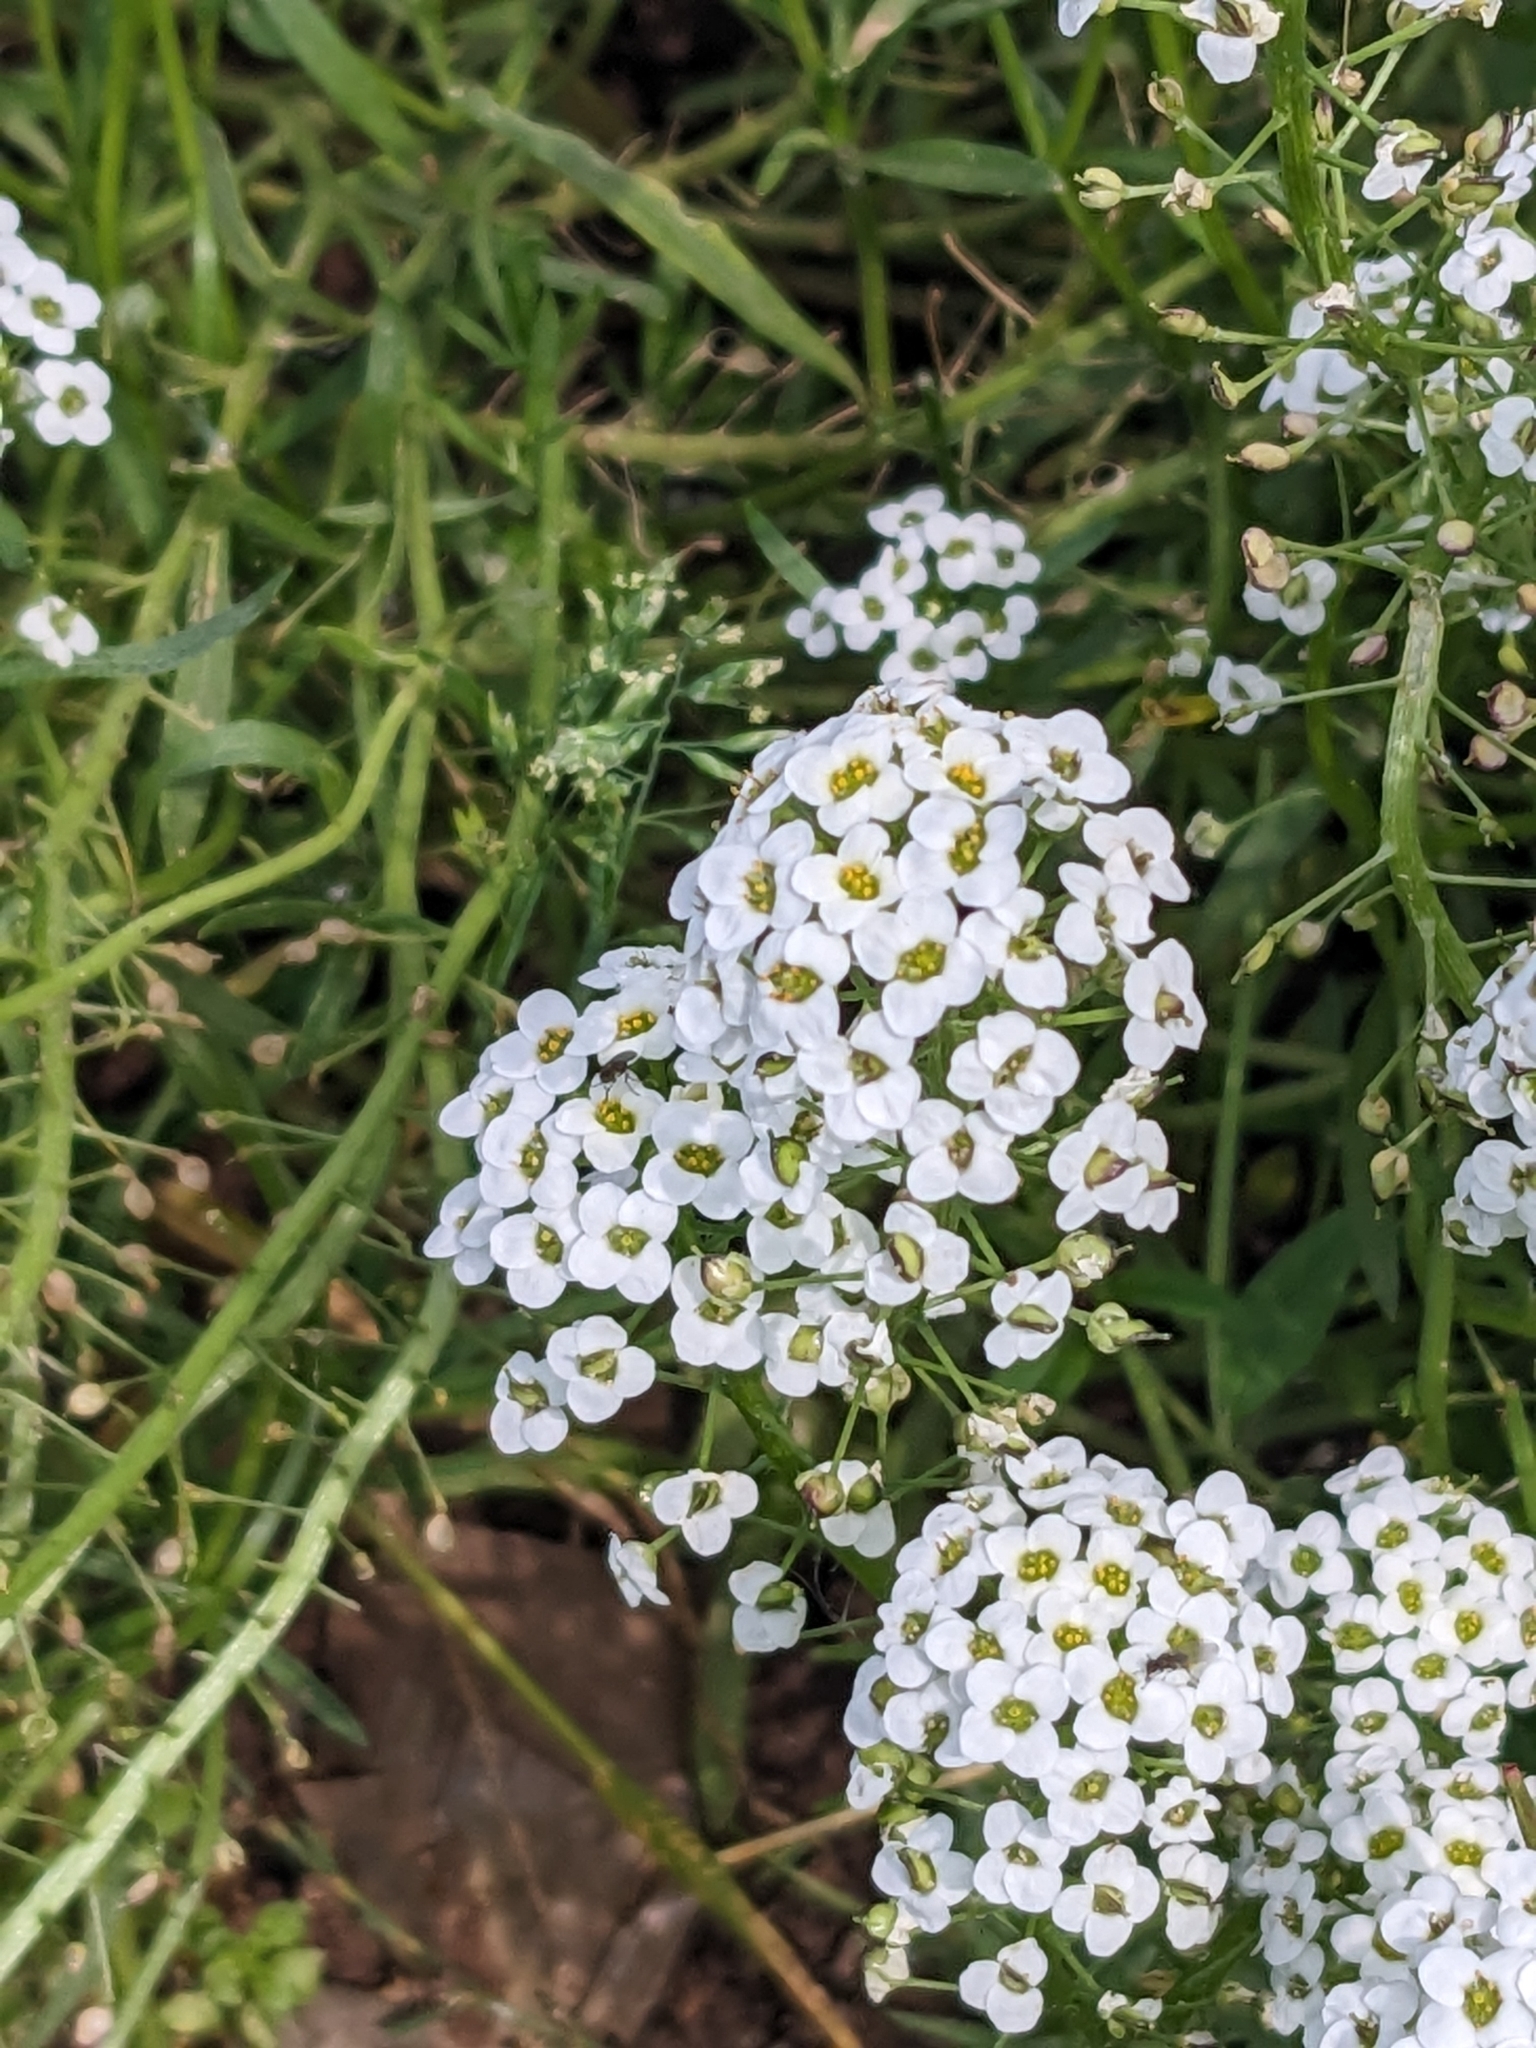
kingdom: Plantae
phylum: Tracheophyta
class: Magnoliopsida
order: Brassicales
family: Brassicaceae
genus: Lobularia
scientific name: Lobularia maritima
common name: Sweet alison
